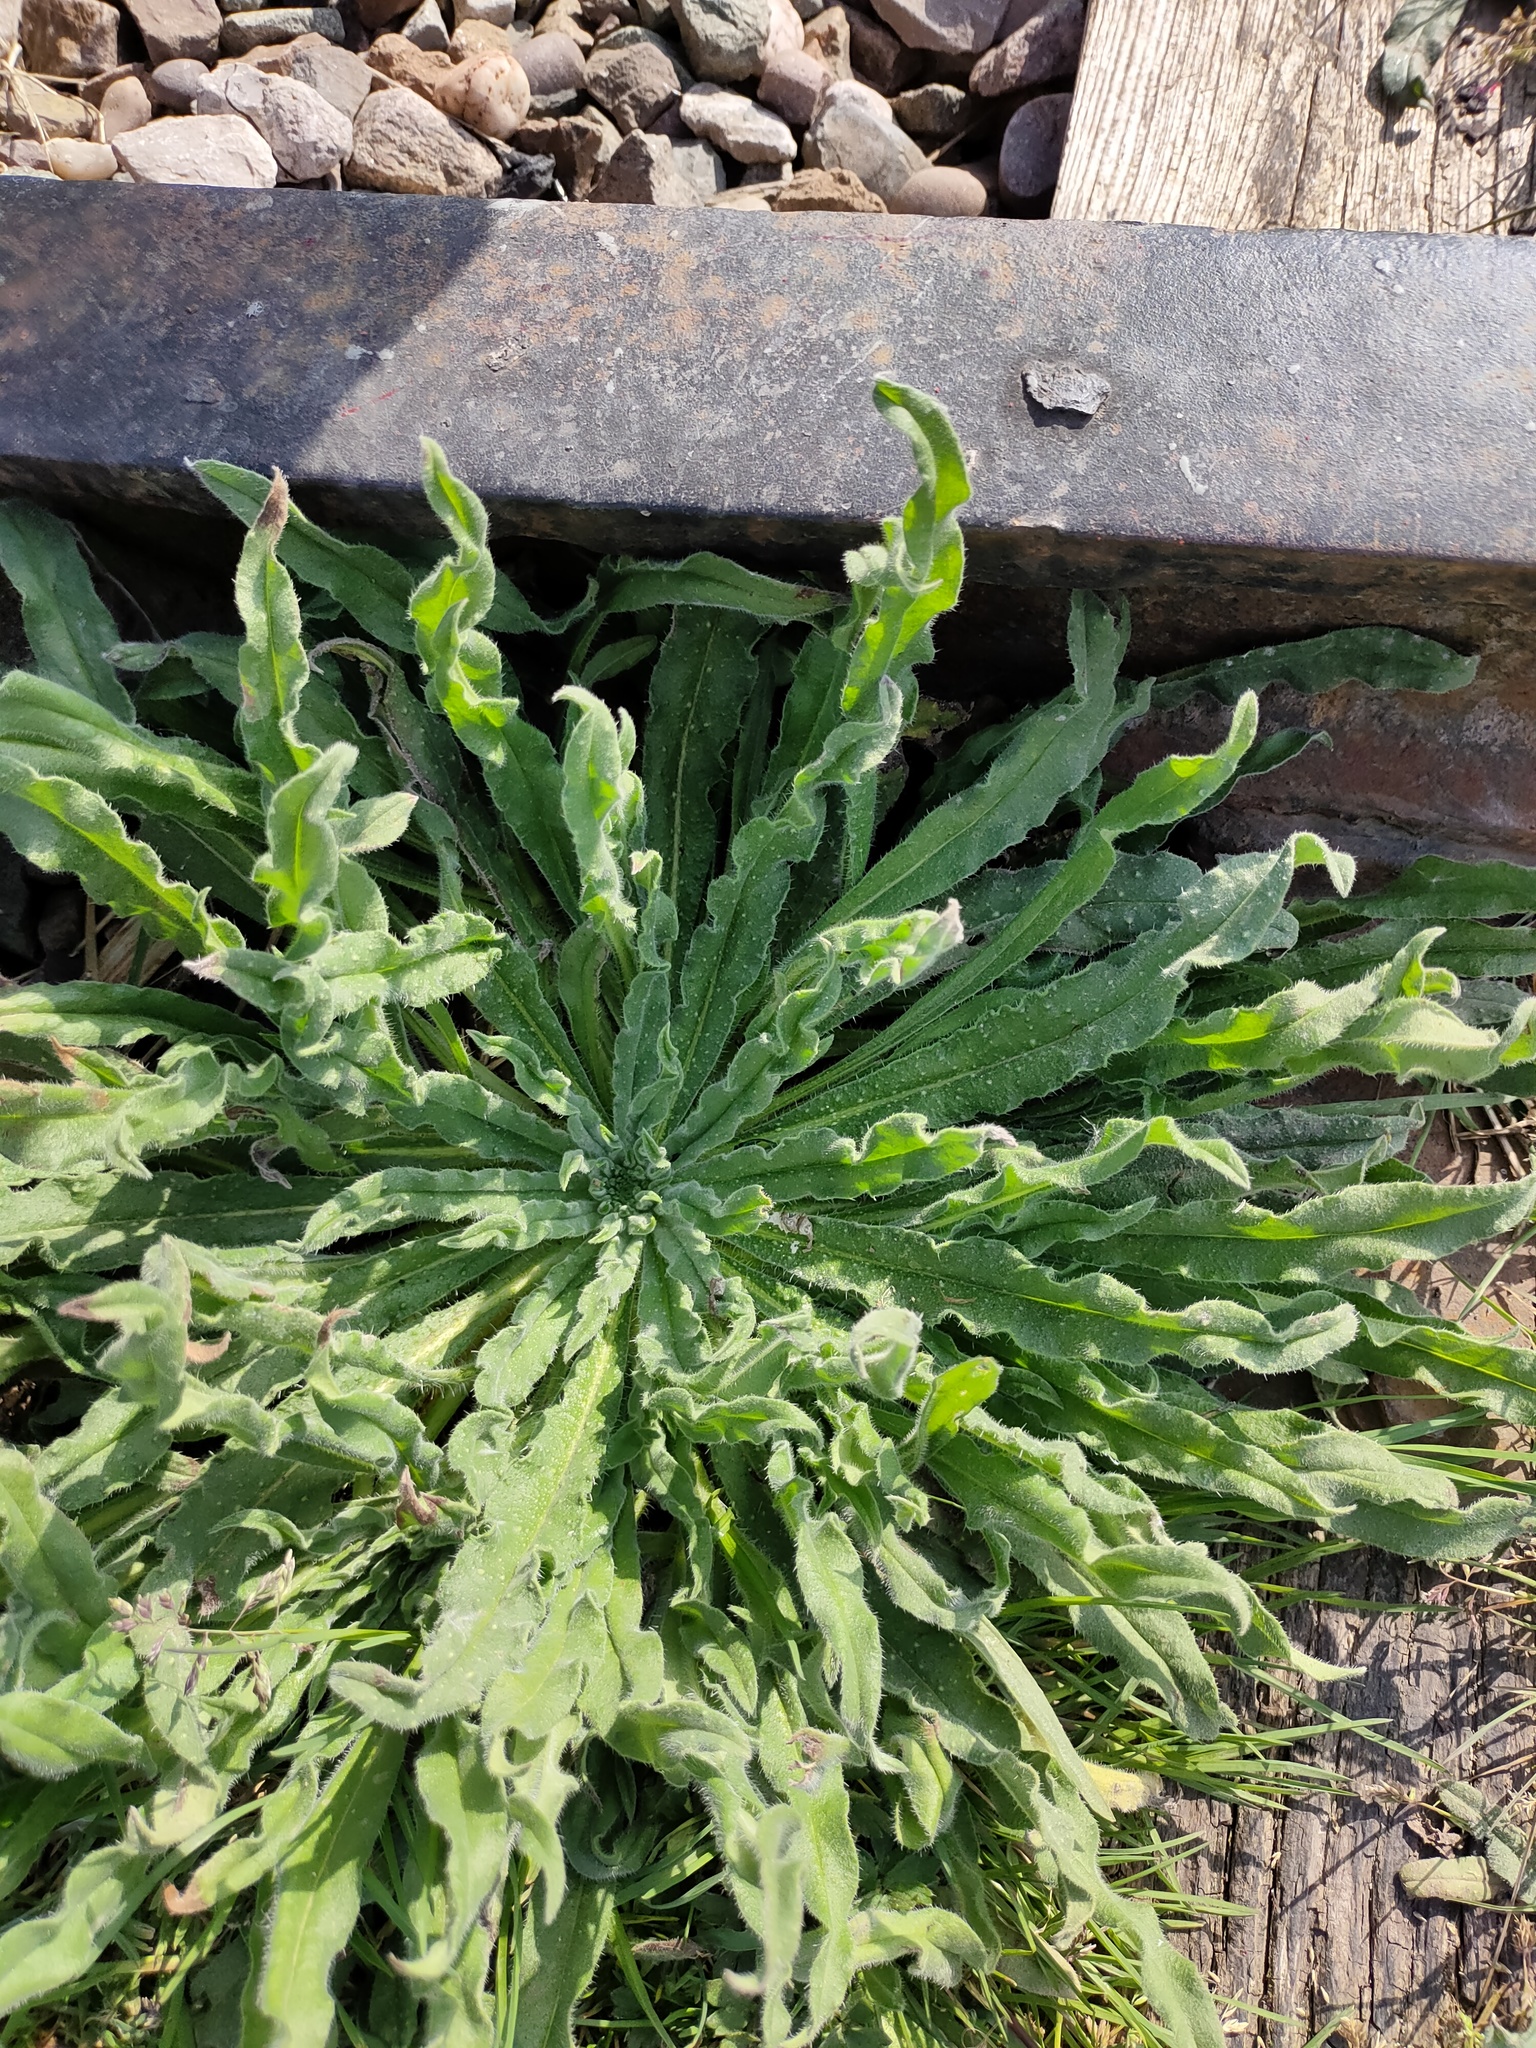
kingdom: Plantae
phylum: Tracheophyta
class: Magnoliopsida
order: Asterales
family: Asteraceae
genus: Helminthotheca
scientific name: Helminthotheca echioides
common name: Ox-tongue
